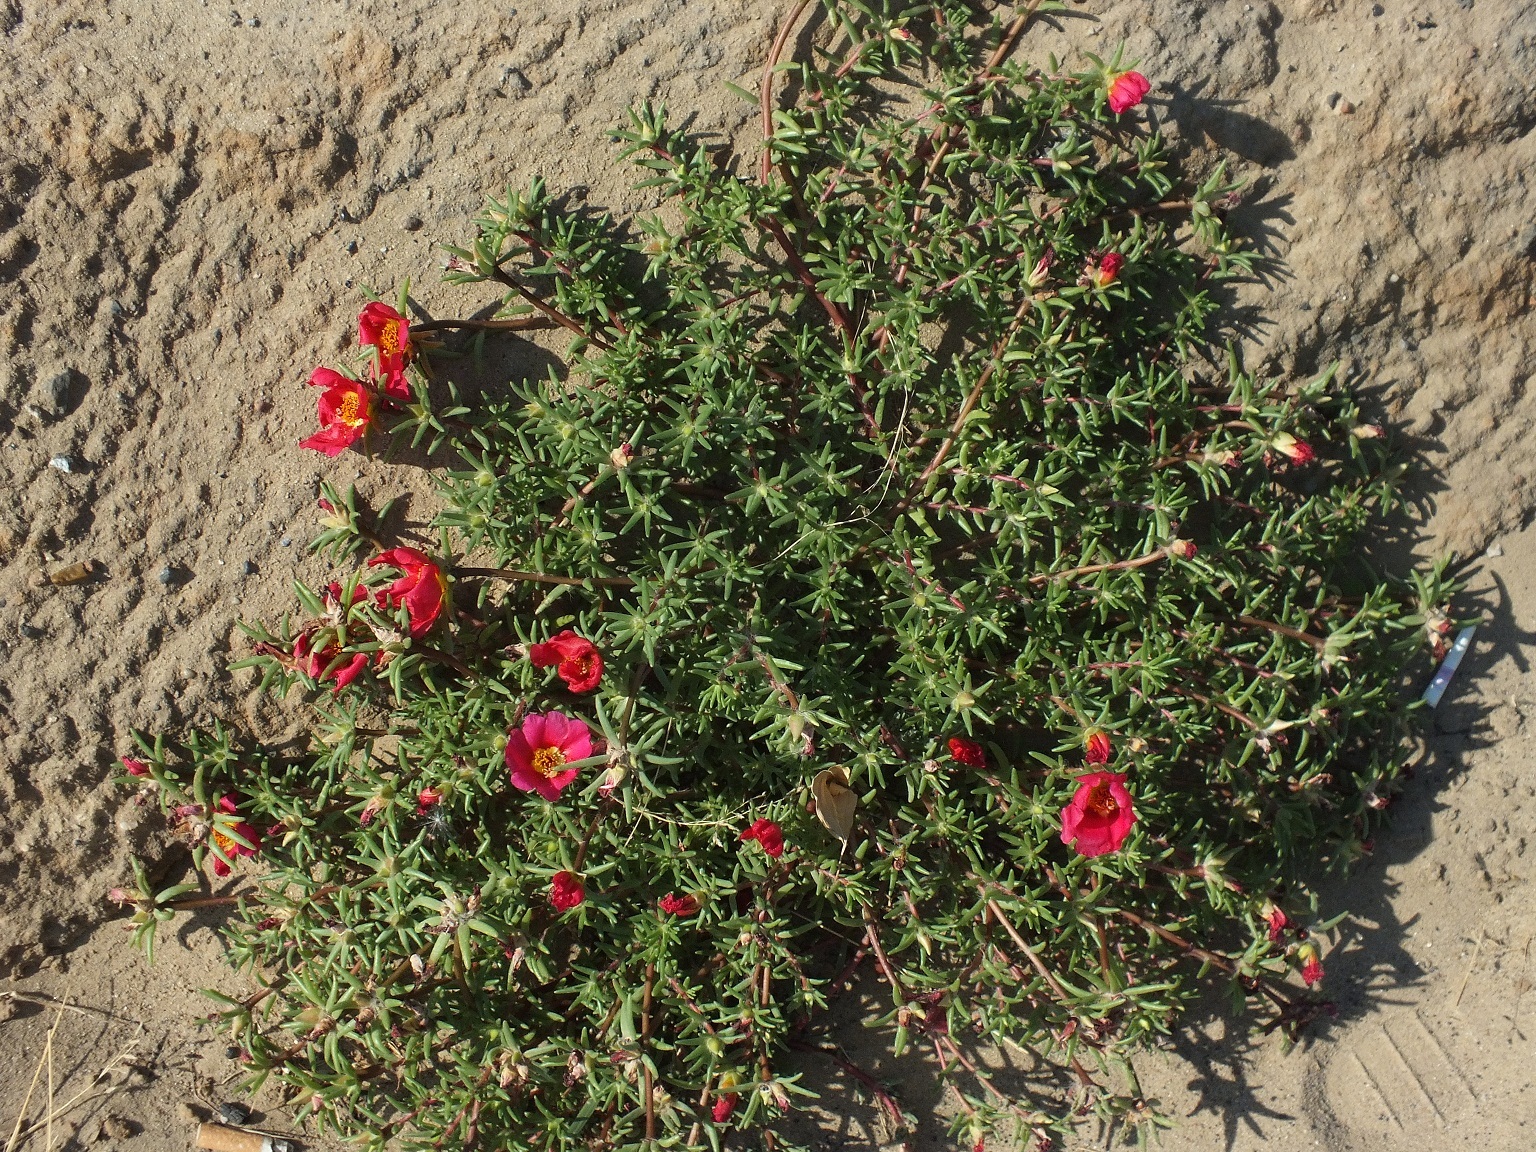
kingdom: Plantae
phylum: Tracheophyta
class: Magnoliopsida
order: Caryophyllales
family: Portulacaceae
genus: Portulaca
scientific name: Portulaca grandiflora
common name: Moss-rose
